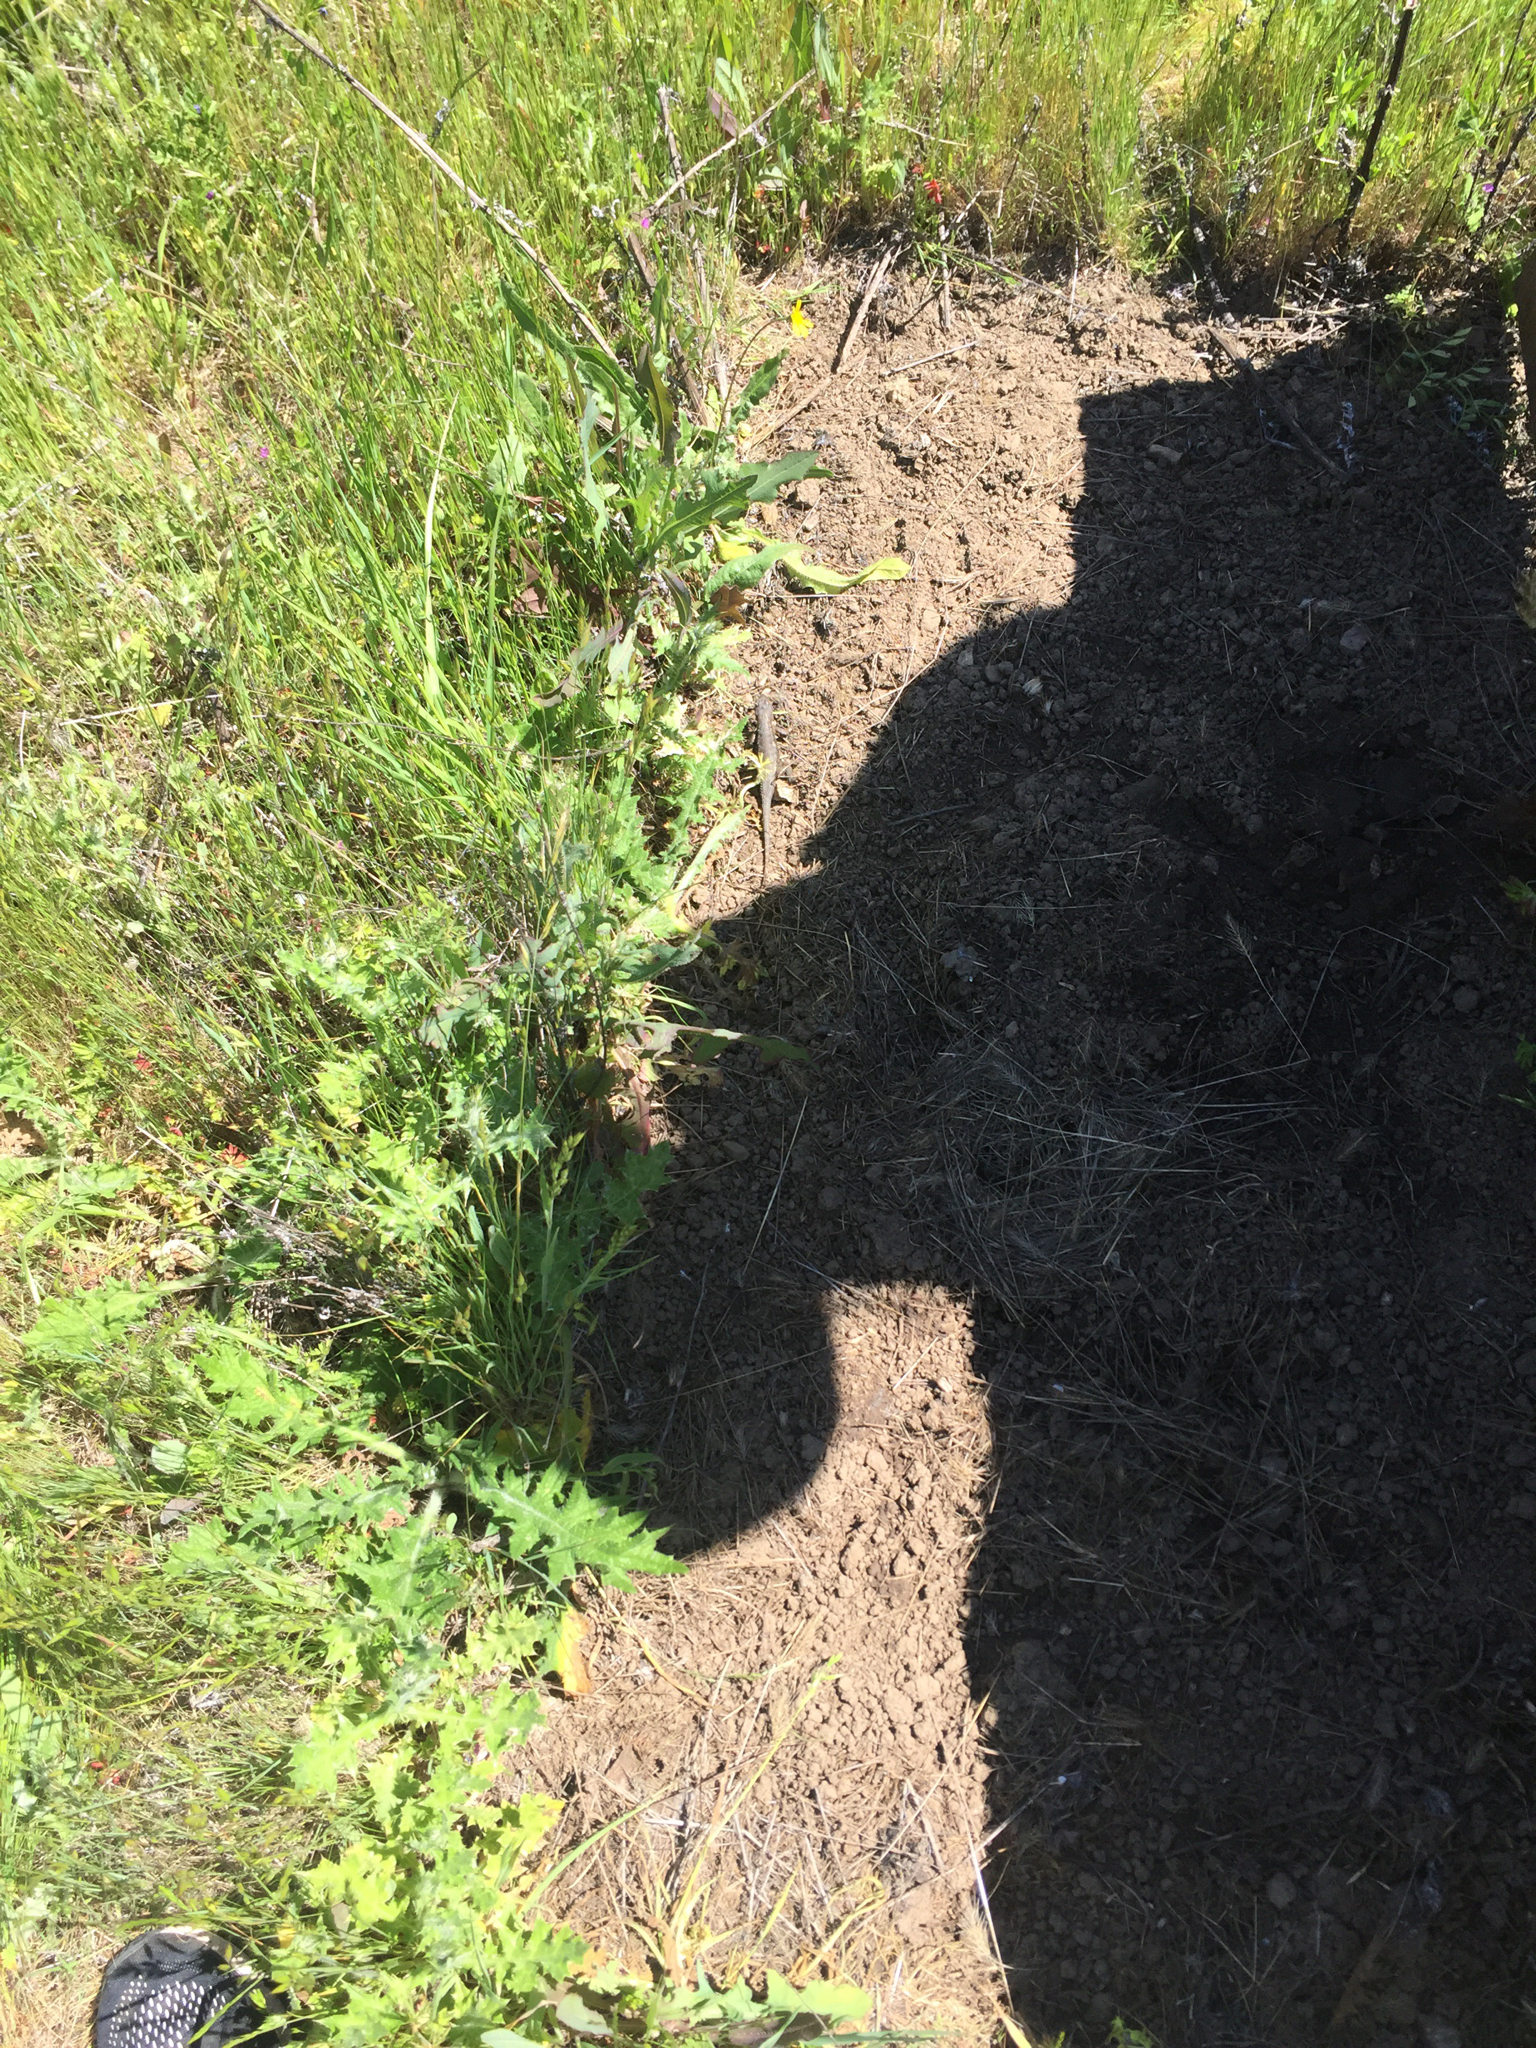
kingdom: Animalia
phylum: Chordata
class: Squamata
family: Phrynosomatidae
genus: Sceloporus
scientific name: Sceloporus occidentalis
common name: Western fence lizard
